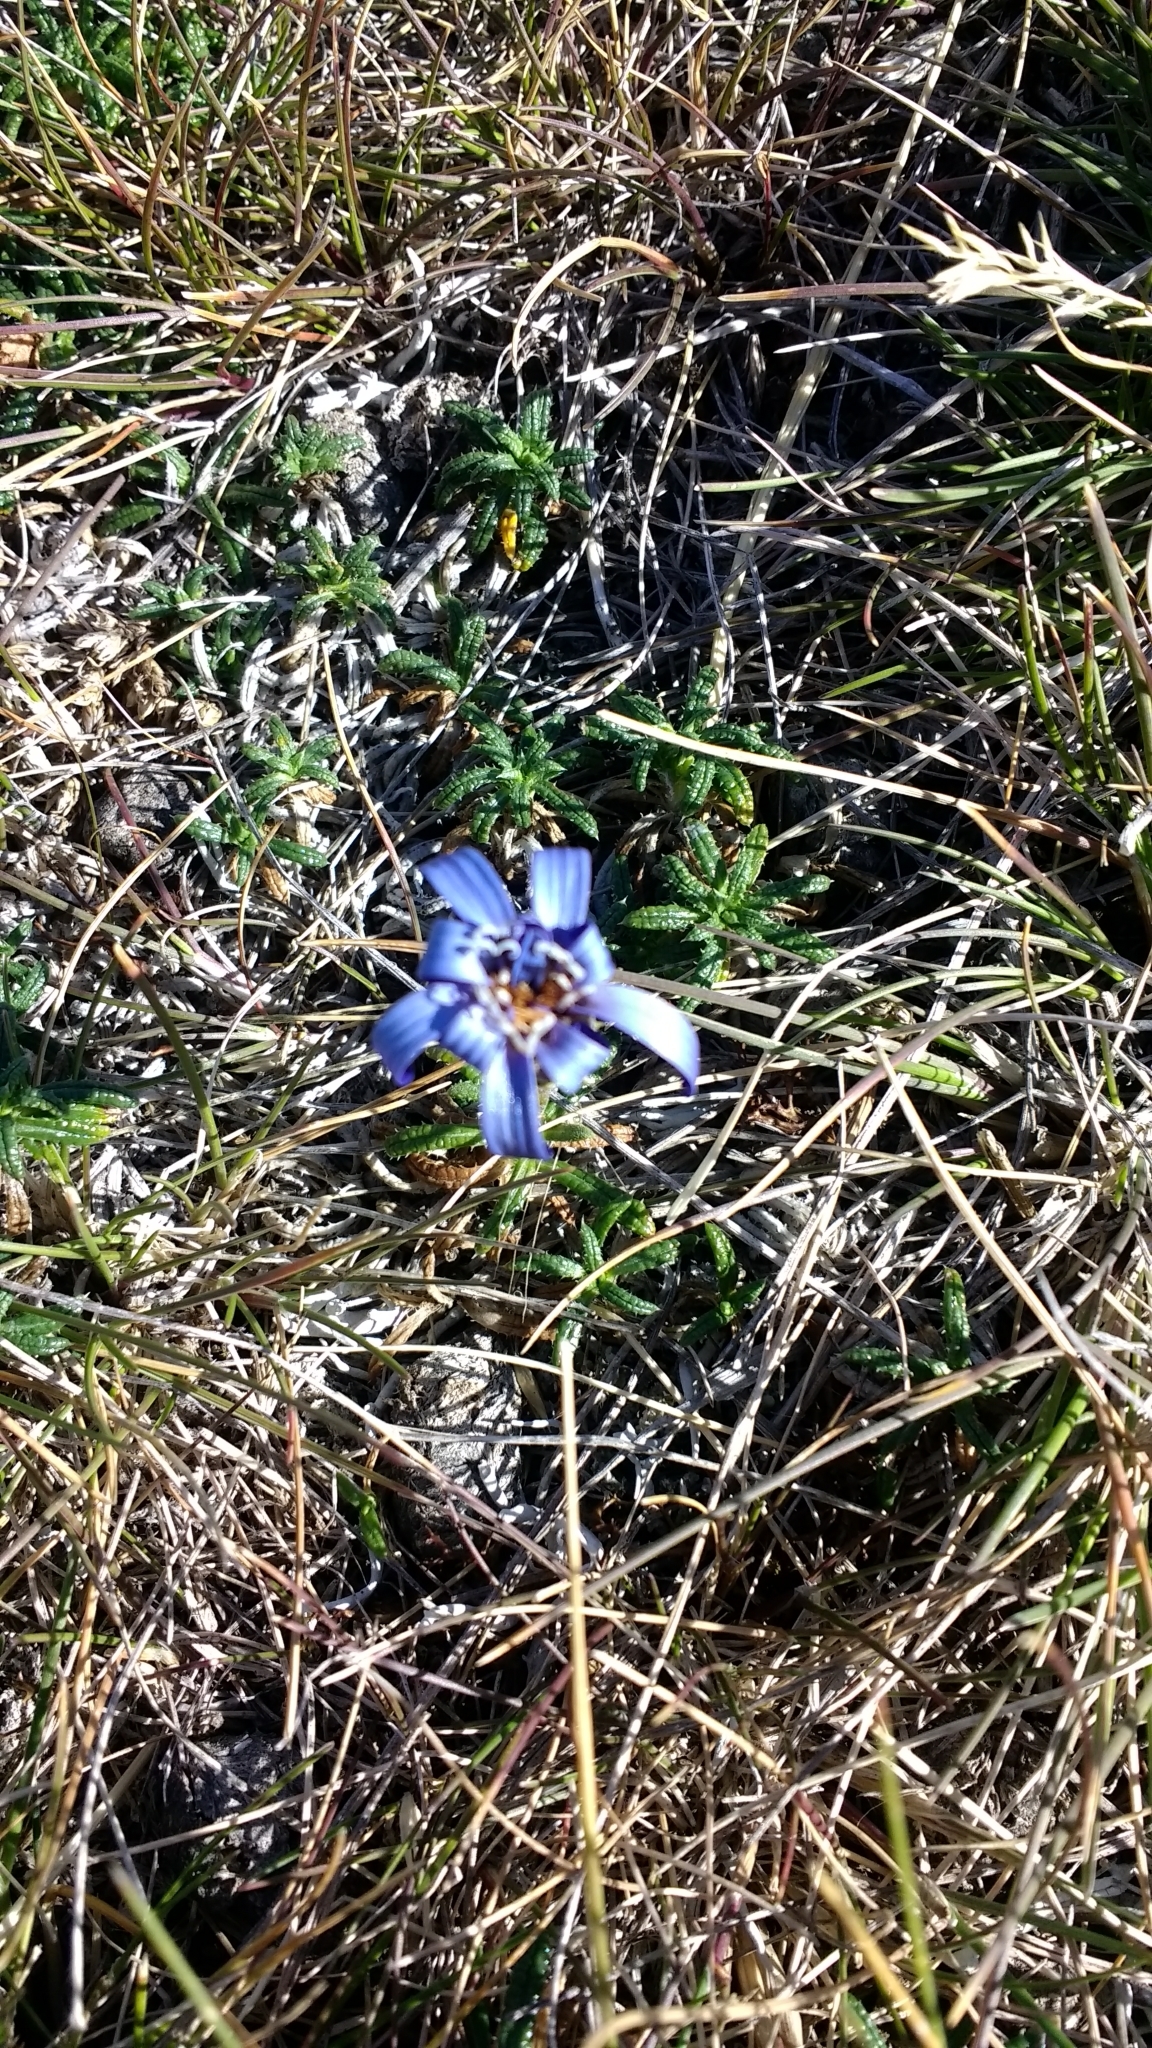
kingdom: Plantae
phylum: Tracheophyta
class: Magnoliopsida
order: Asterales
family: Asteraceae
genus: Perezia
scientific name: Perezia recurvata
